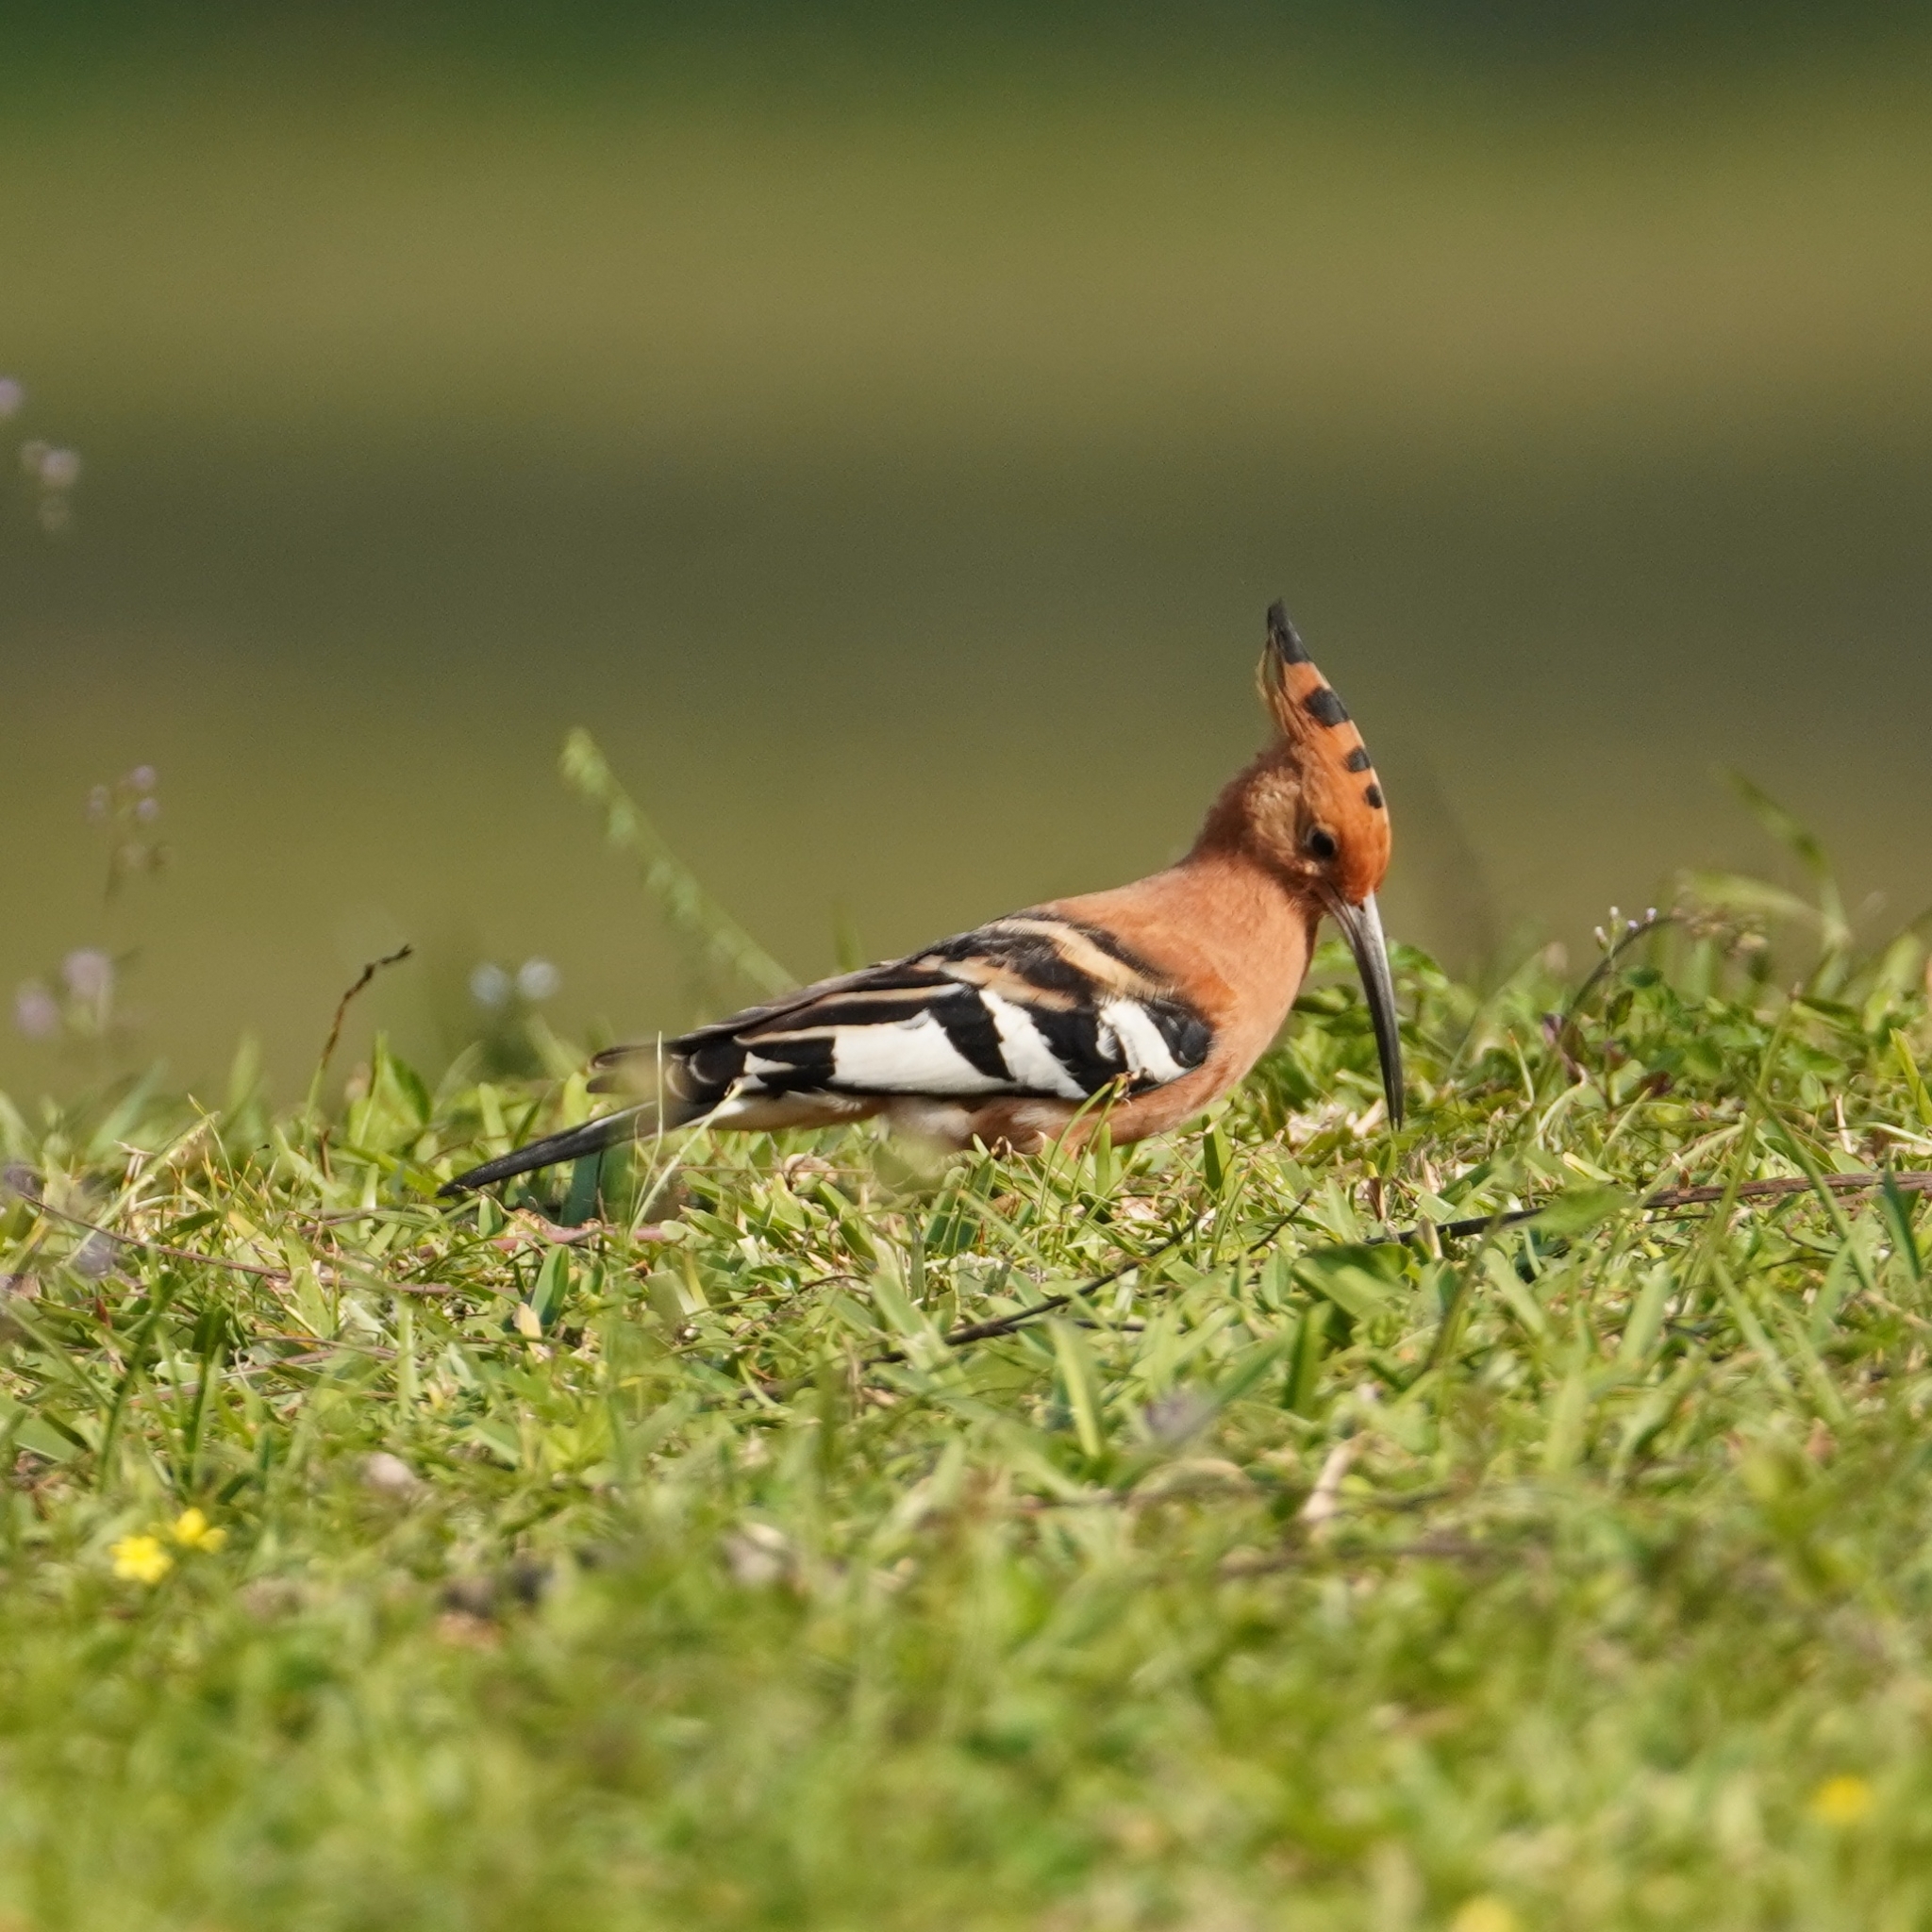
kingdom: Animalia
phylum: Chordata
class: Aves
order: Bucerotiformes
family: Upupidae
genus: Upupa
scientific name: Upupa africana
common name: African hoopoe
